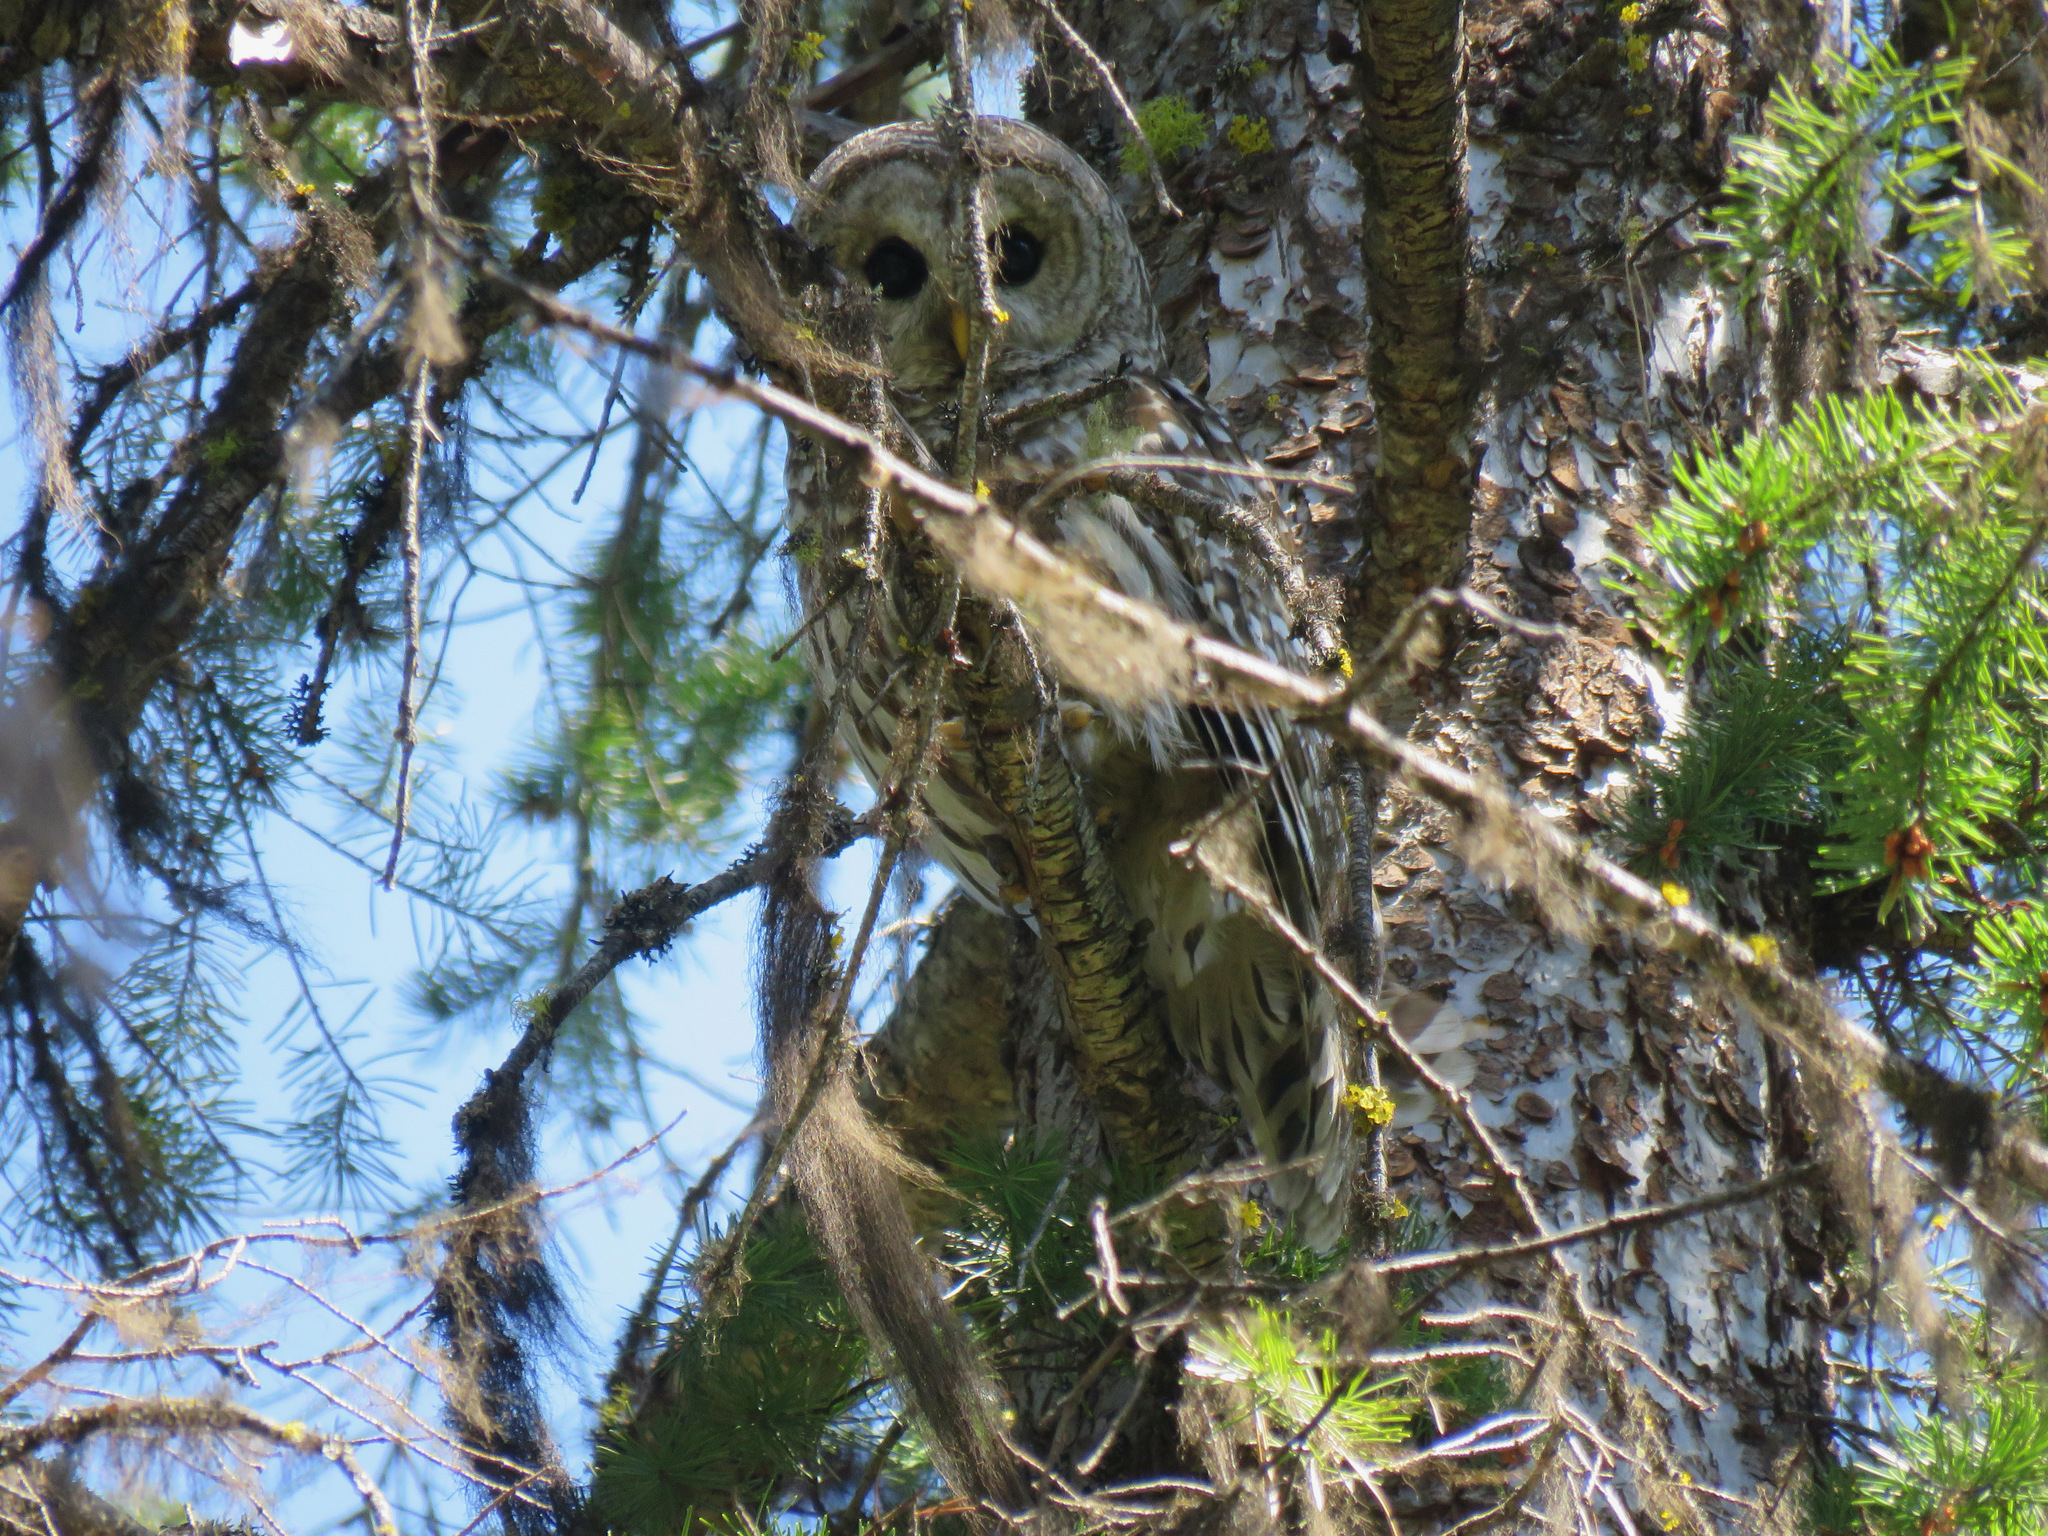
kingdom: Animalia
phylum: Chordata
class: Aves
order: Strigiformes
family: Strigidae
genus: Strix
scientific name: Strix varia
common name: Barred owl
